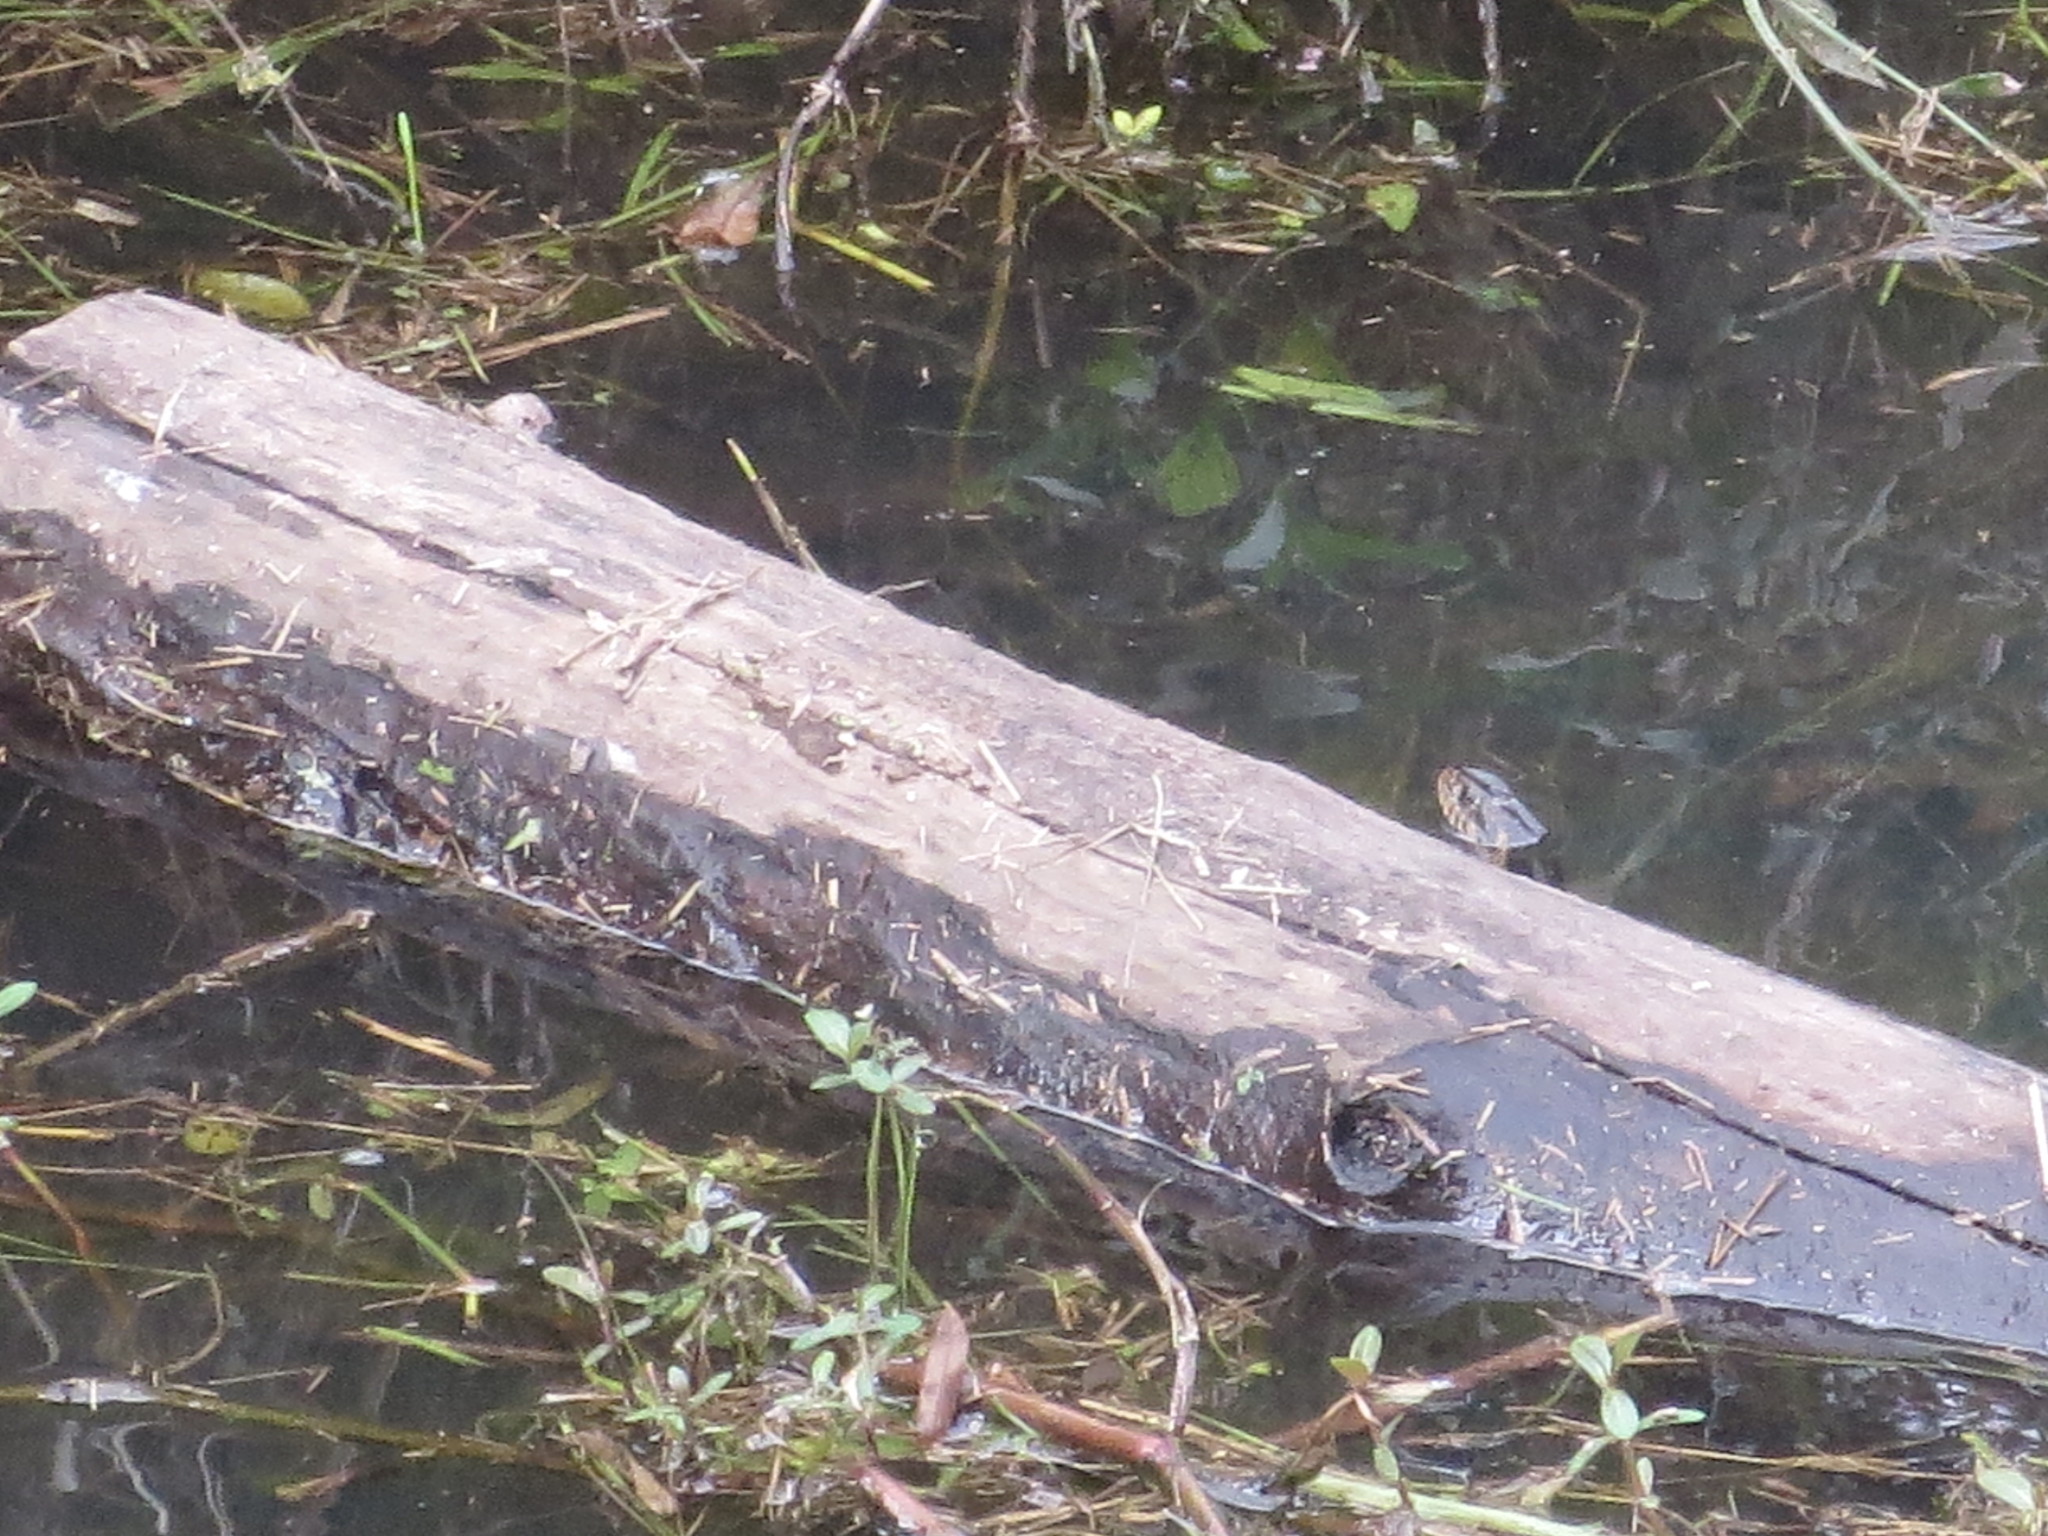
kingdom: Animalia
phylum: Chordata
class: Squamata
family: Colubridae
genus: Nerodia
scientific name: Nerodia fasciata
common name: Southern water snake
